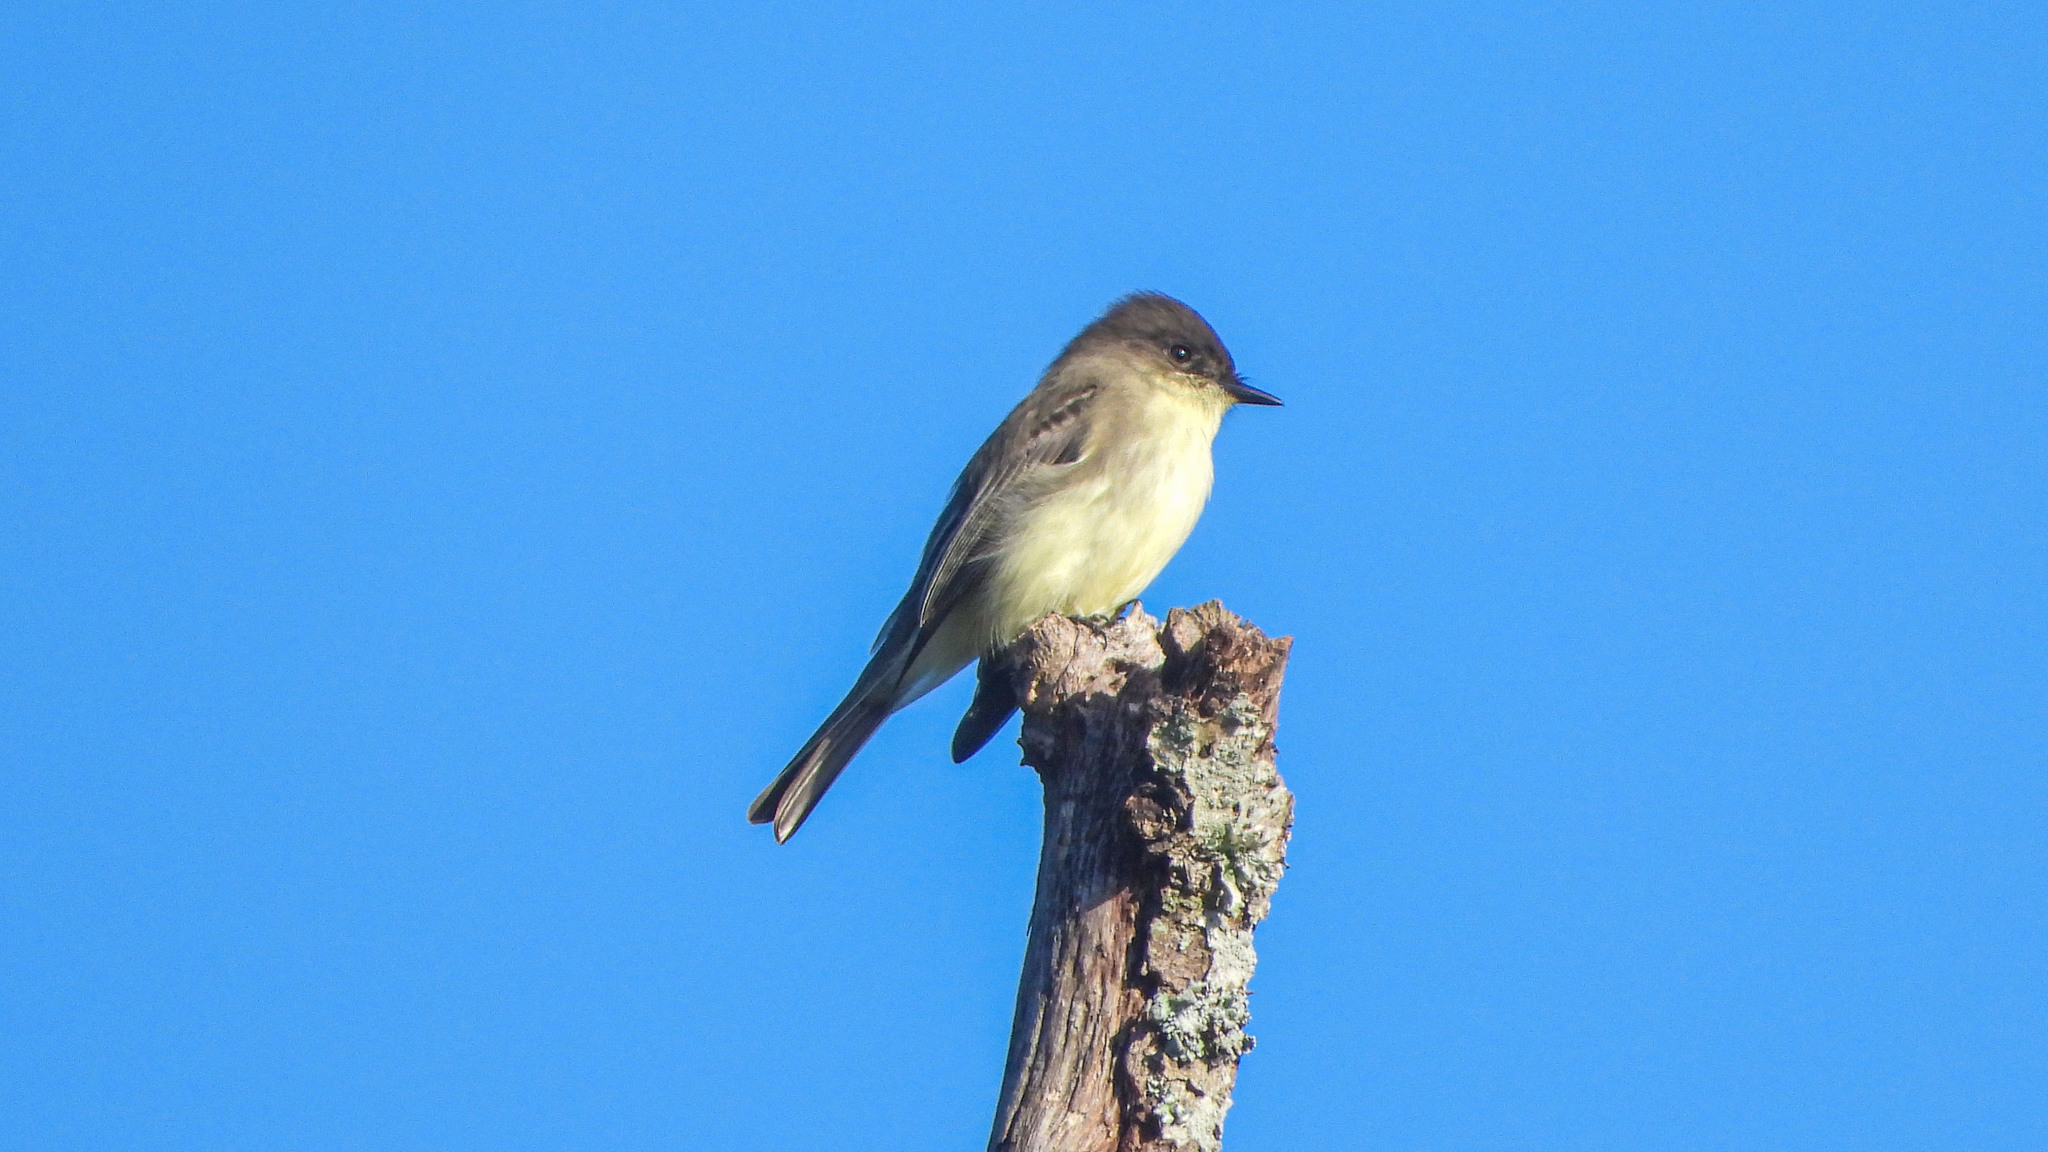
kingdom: Animalia
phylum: Chordata
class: Aves
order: Passeriformes
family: Tyrannidae
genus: Sayornis
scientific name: Sayornis phoebe
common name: Eastern phoebe
